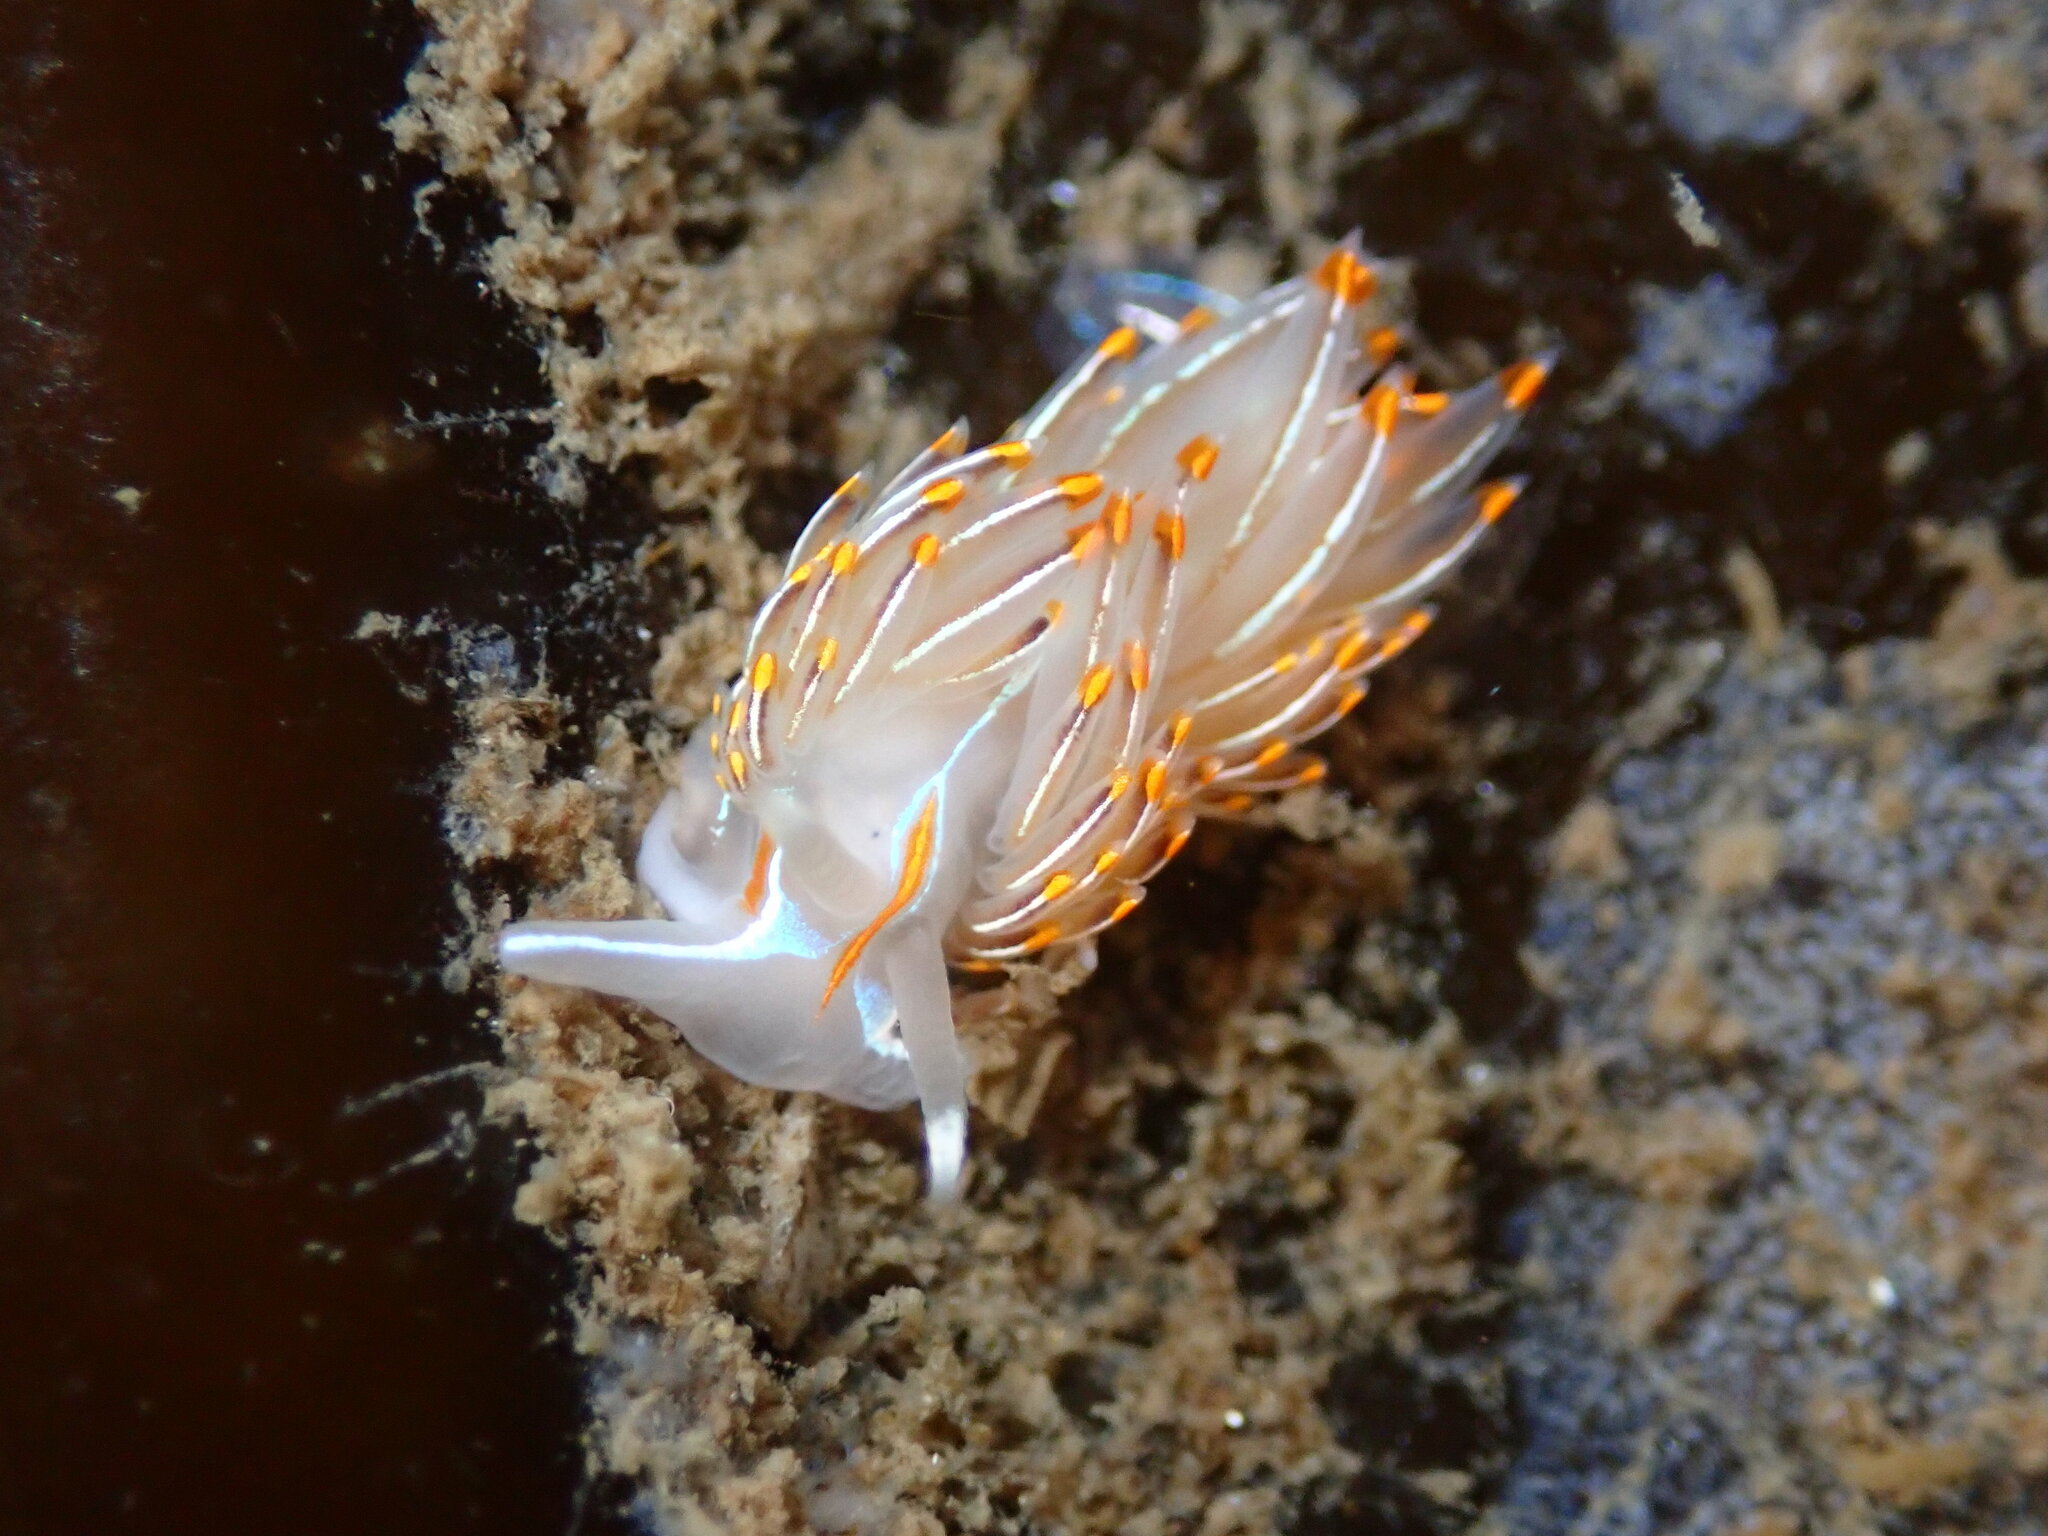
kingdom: Animalia
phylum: Mollusca
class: Gastropoda
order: Nudibranchia
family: Myrrhinidae
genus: Hermissenda
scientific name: Hermissenda crassicornis
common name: Hermissenda
